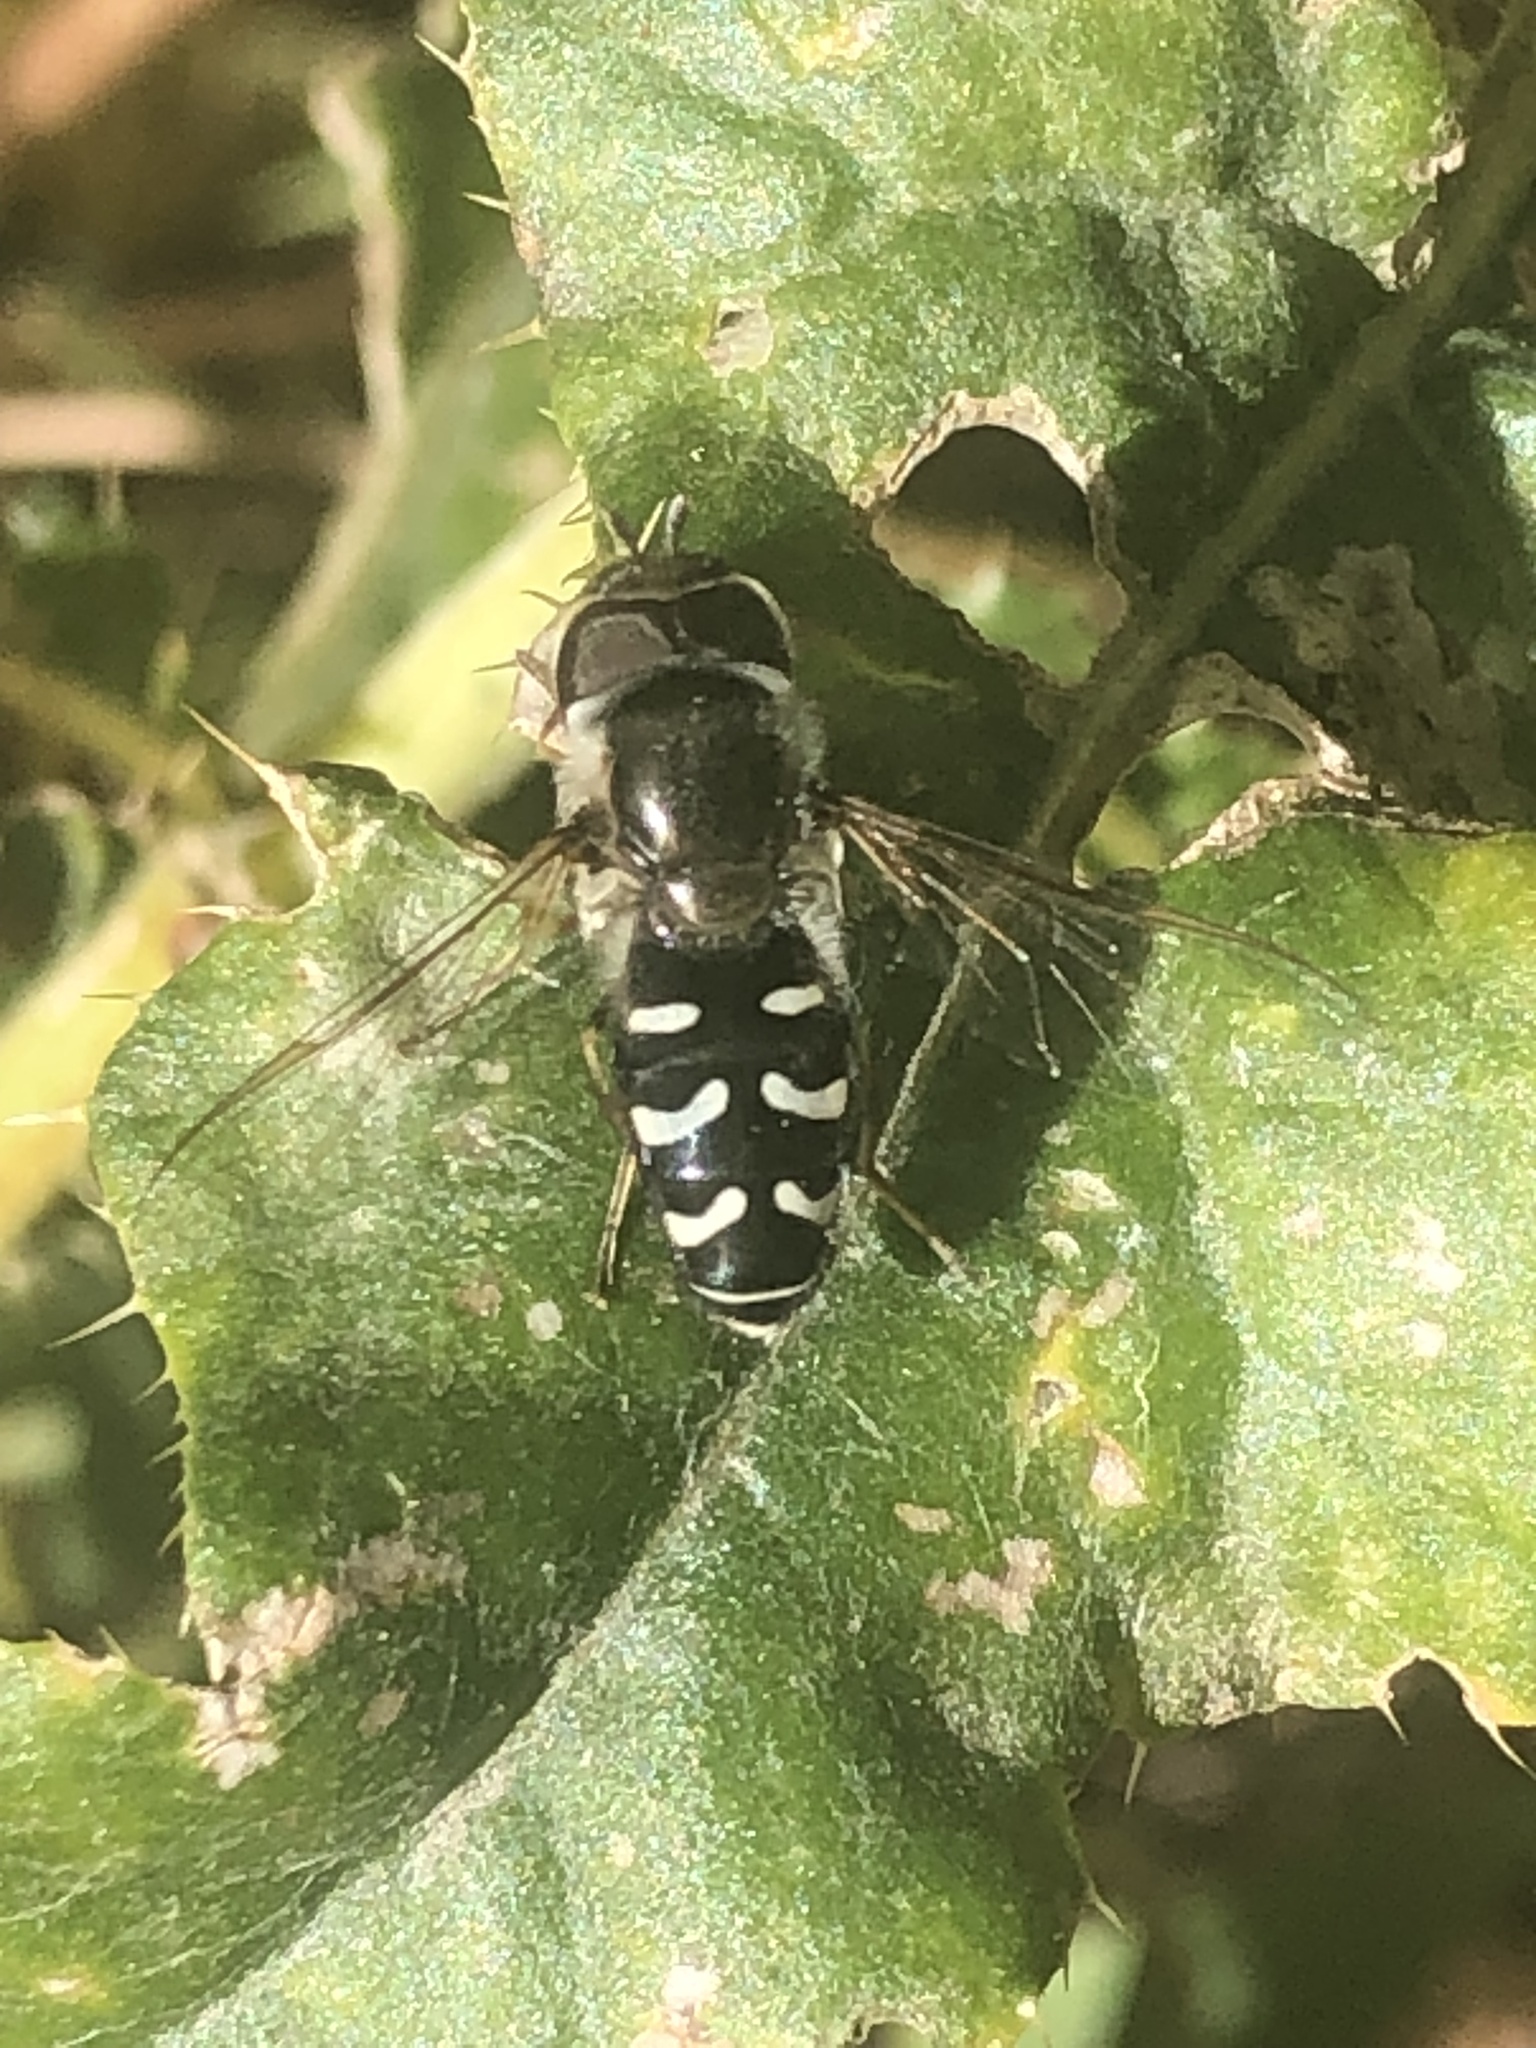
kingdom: Animalia
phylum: Arthropoda
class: Insecta
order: Diptera
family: Syrphidae
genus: Scaeva
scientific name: Scaeva affinis
